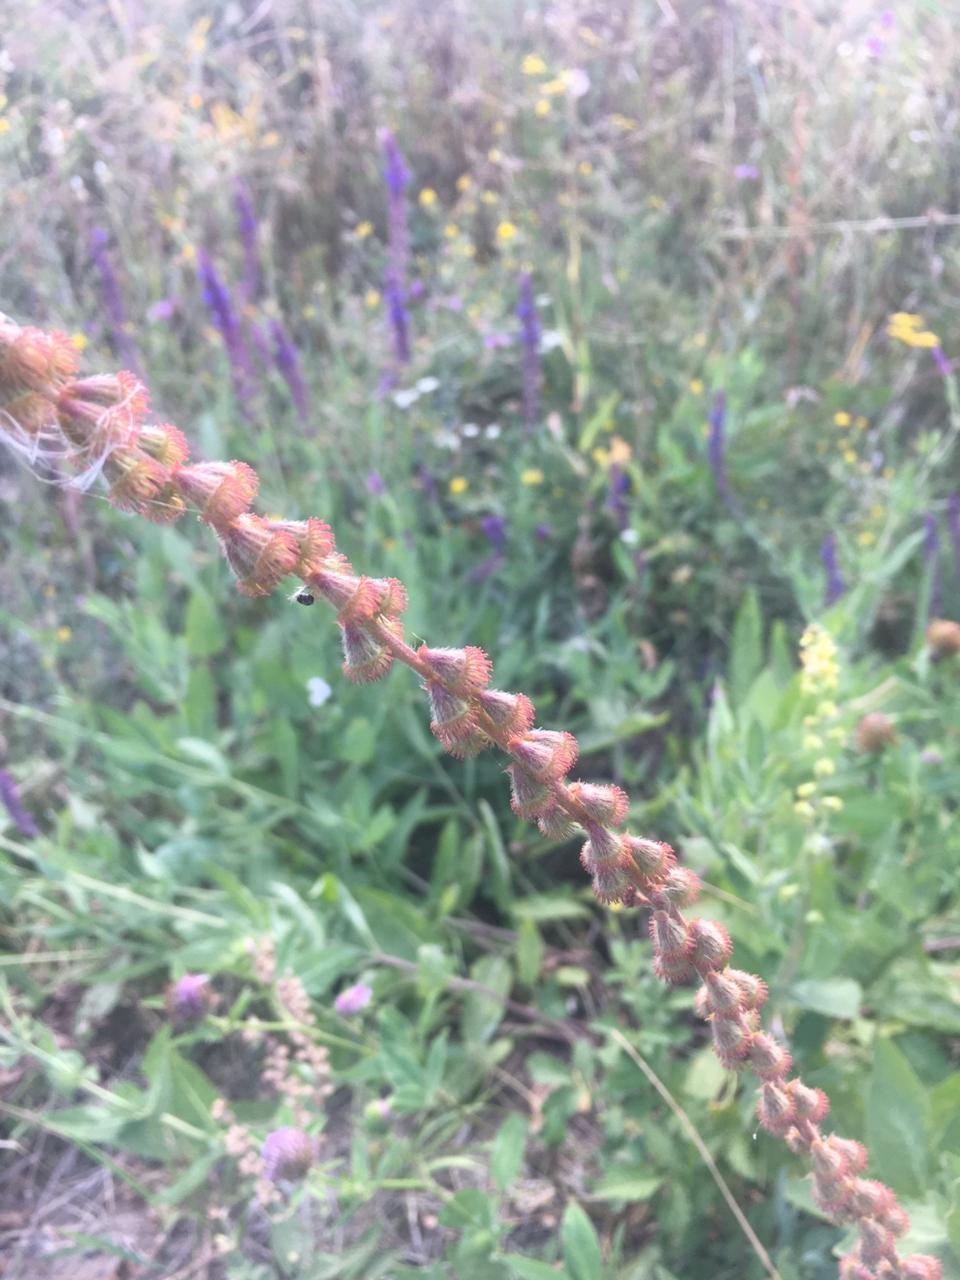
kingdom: Plantae
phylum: Tracheophyta
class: Magnoliopsida
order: Rosales
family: Rosaceae
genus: Agrimonia
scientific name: Agrimonia eupatoria
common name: Agrimony
